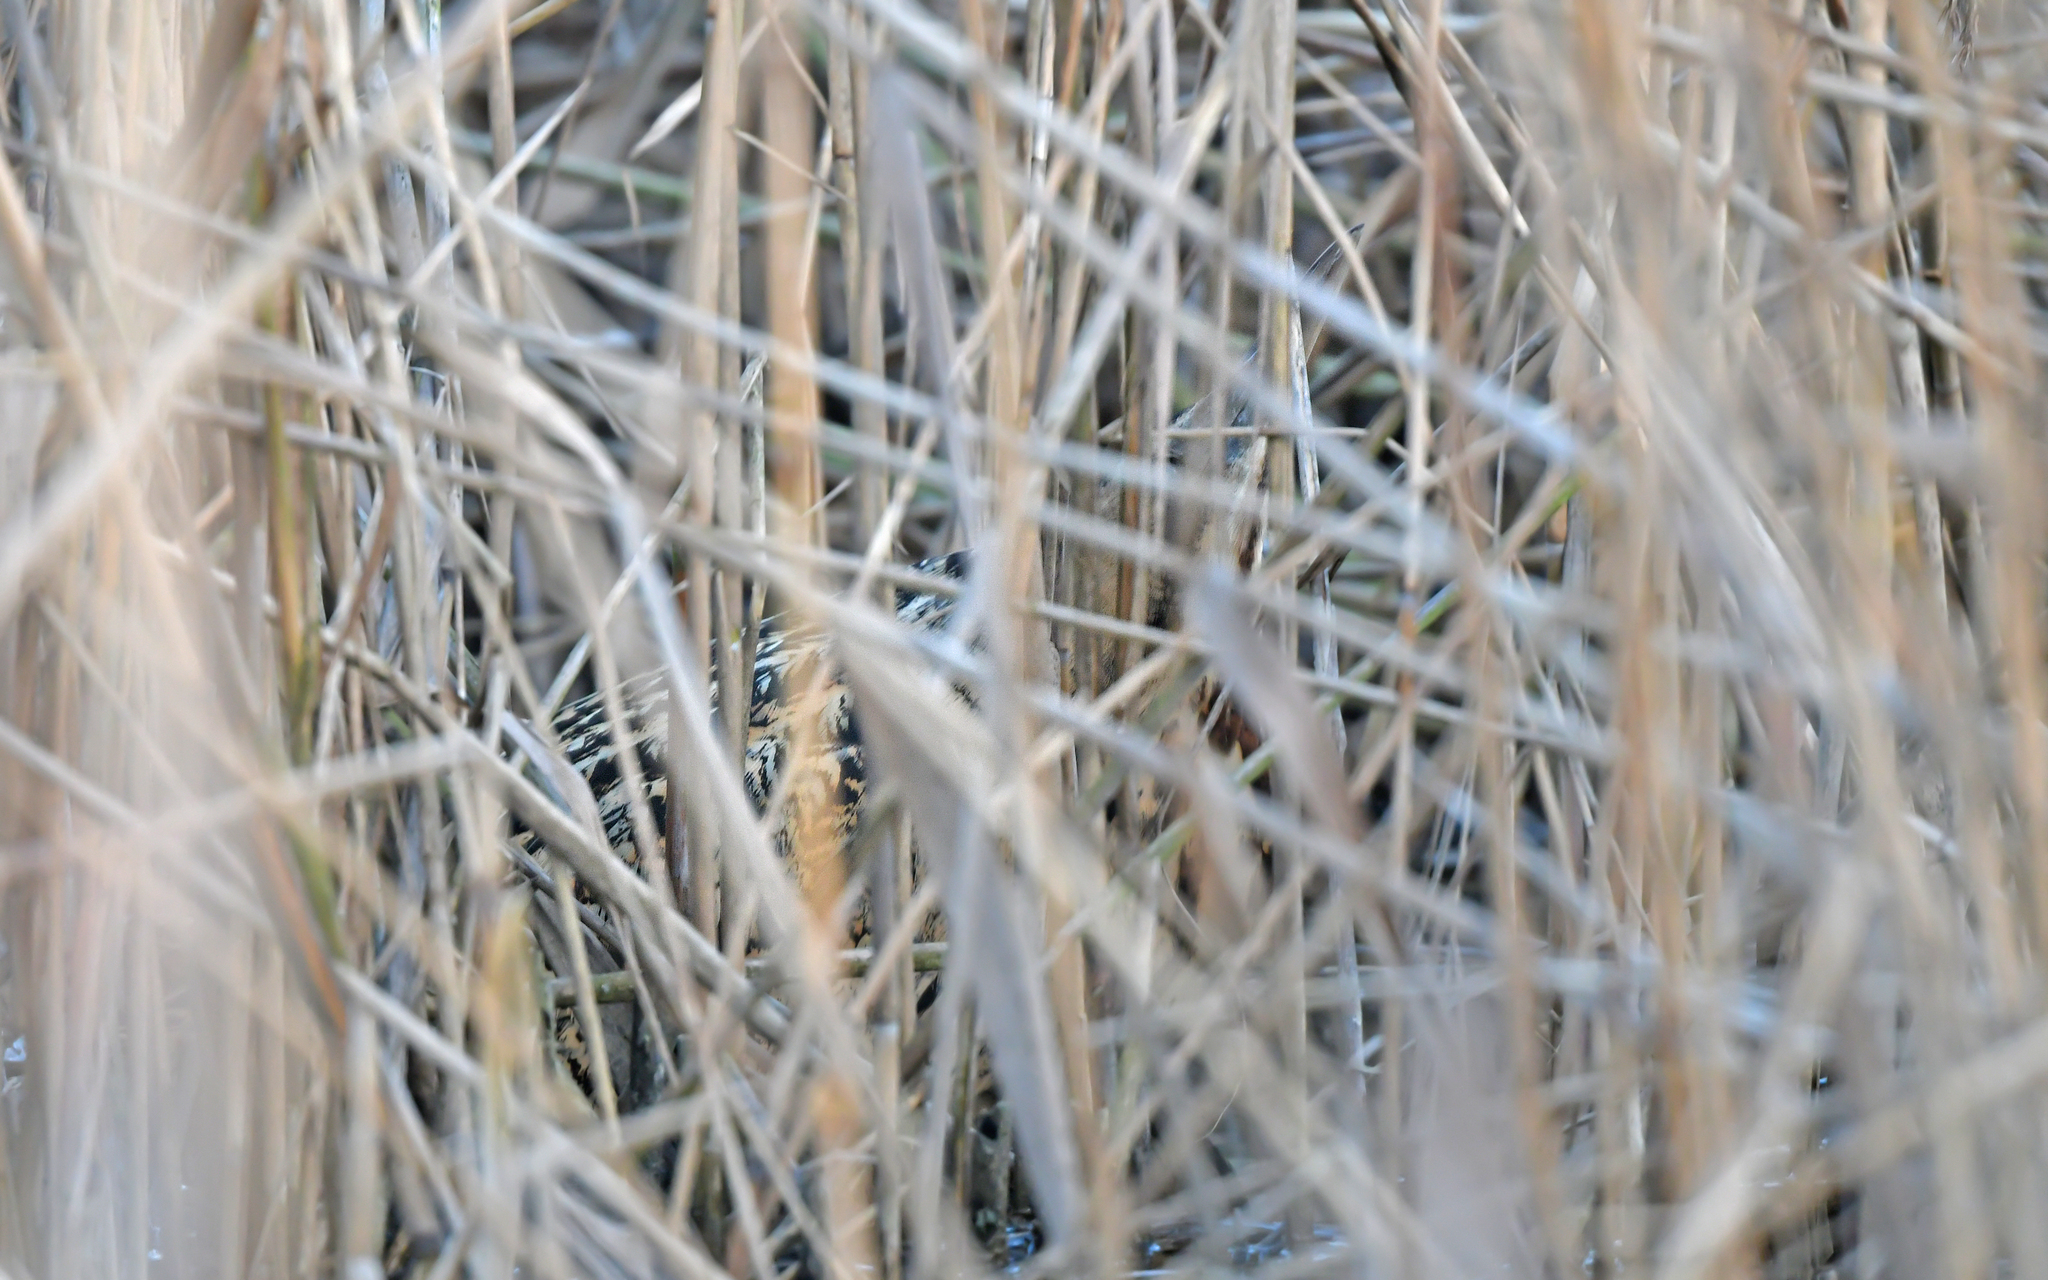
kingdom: Animalia
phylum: Chordata
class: Aves
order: Pelecaniformes
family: Ardeidae
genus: Botaurus
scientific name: Botaurus stellaris
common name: Eurasian bittern
